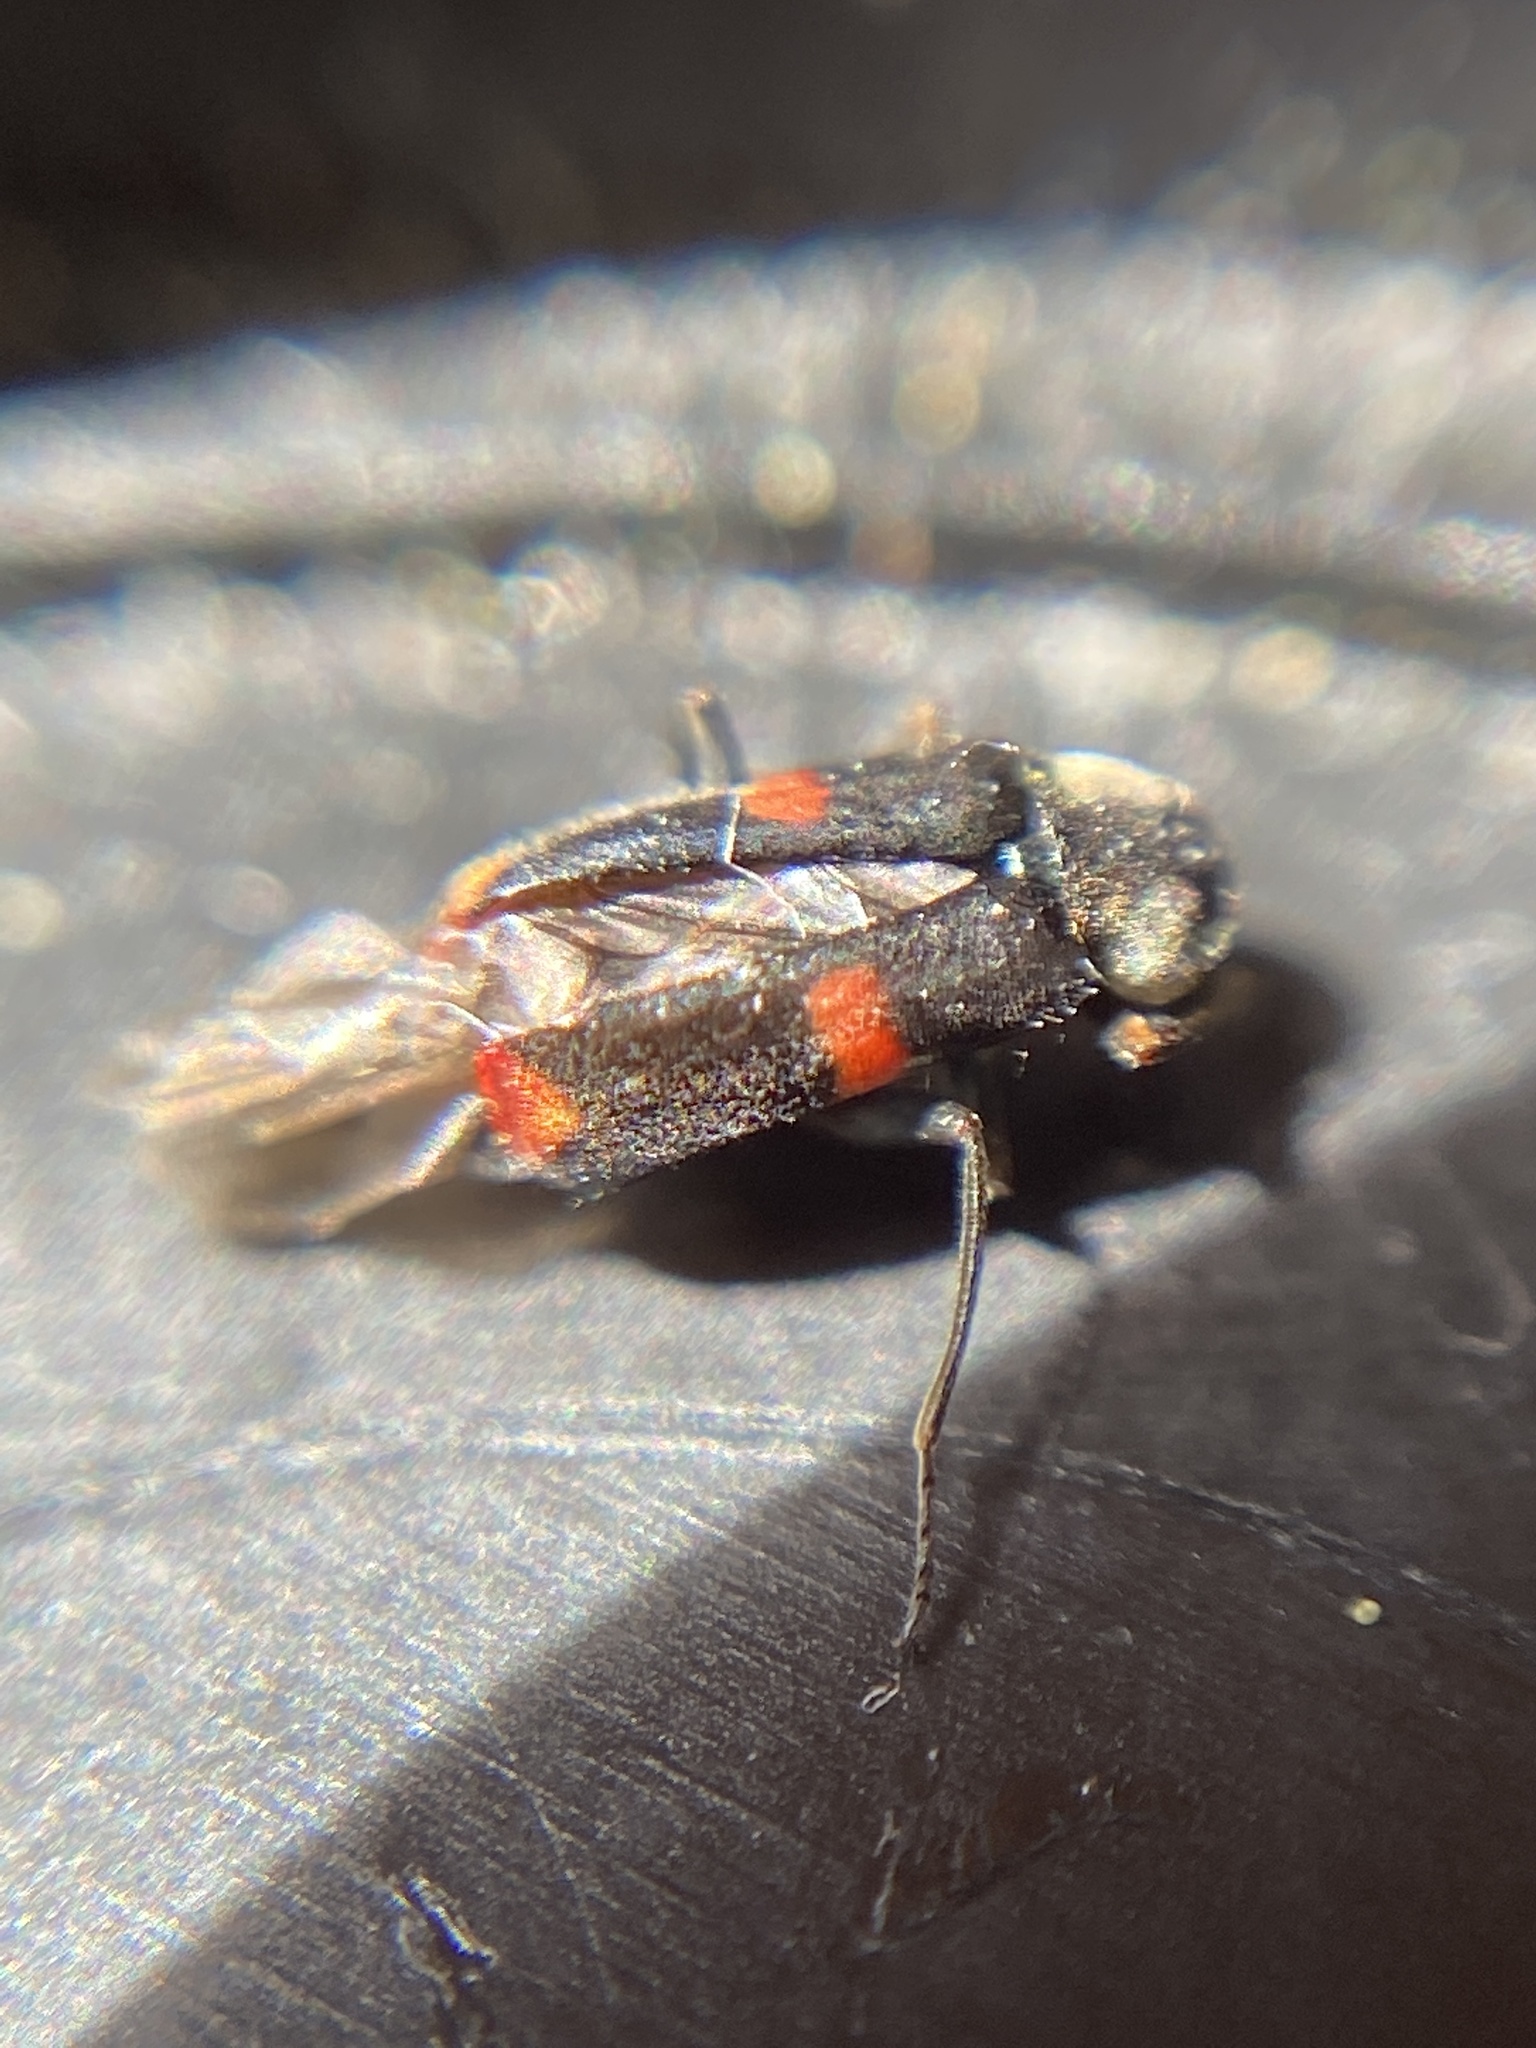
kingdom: Animalia
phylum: Arthropoda
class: Insecta
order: Coleoptera
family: Melyridae
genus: Anthocomus
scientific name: Anthocomus fasciatus
